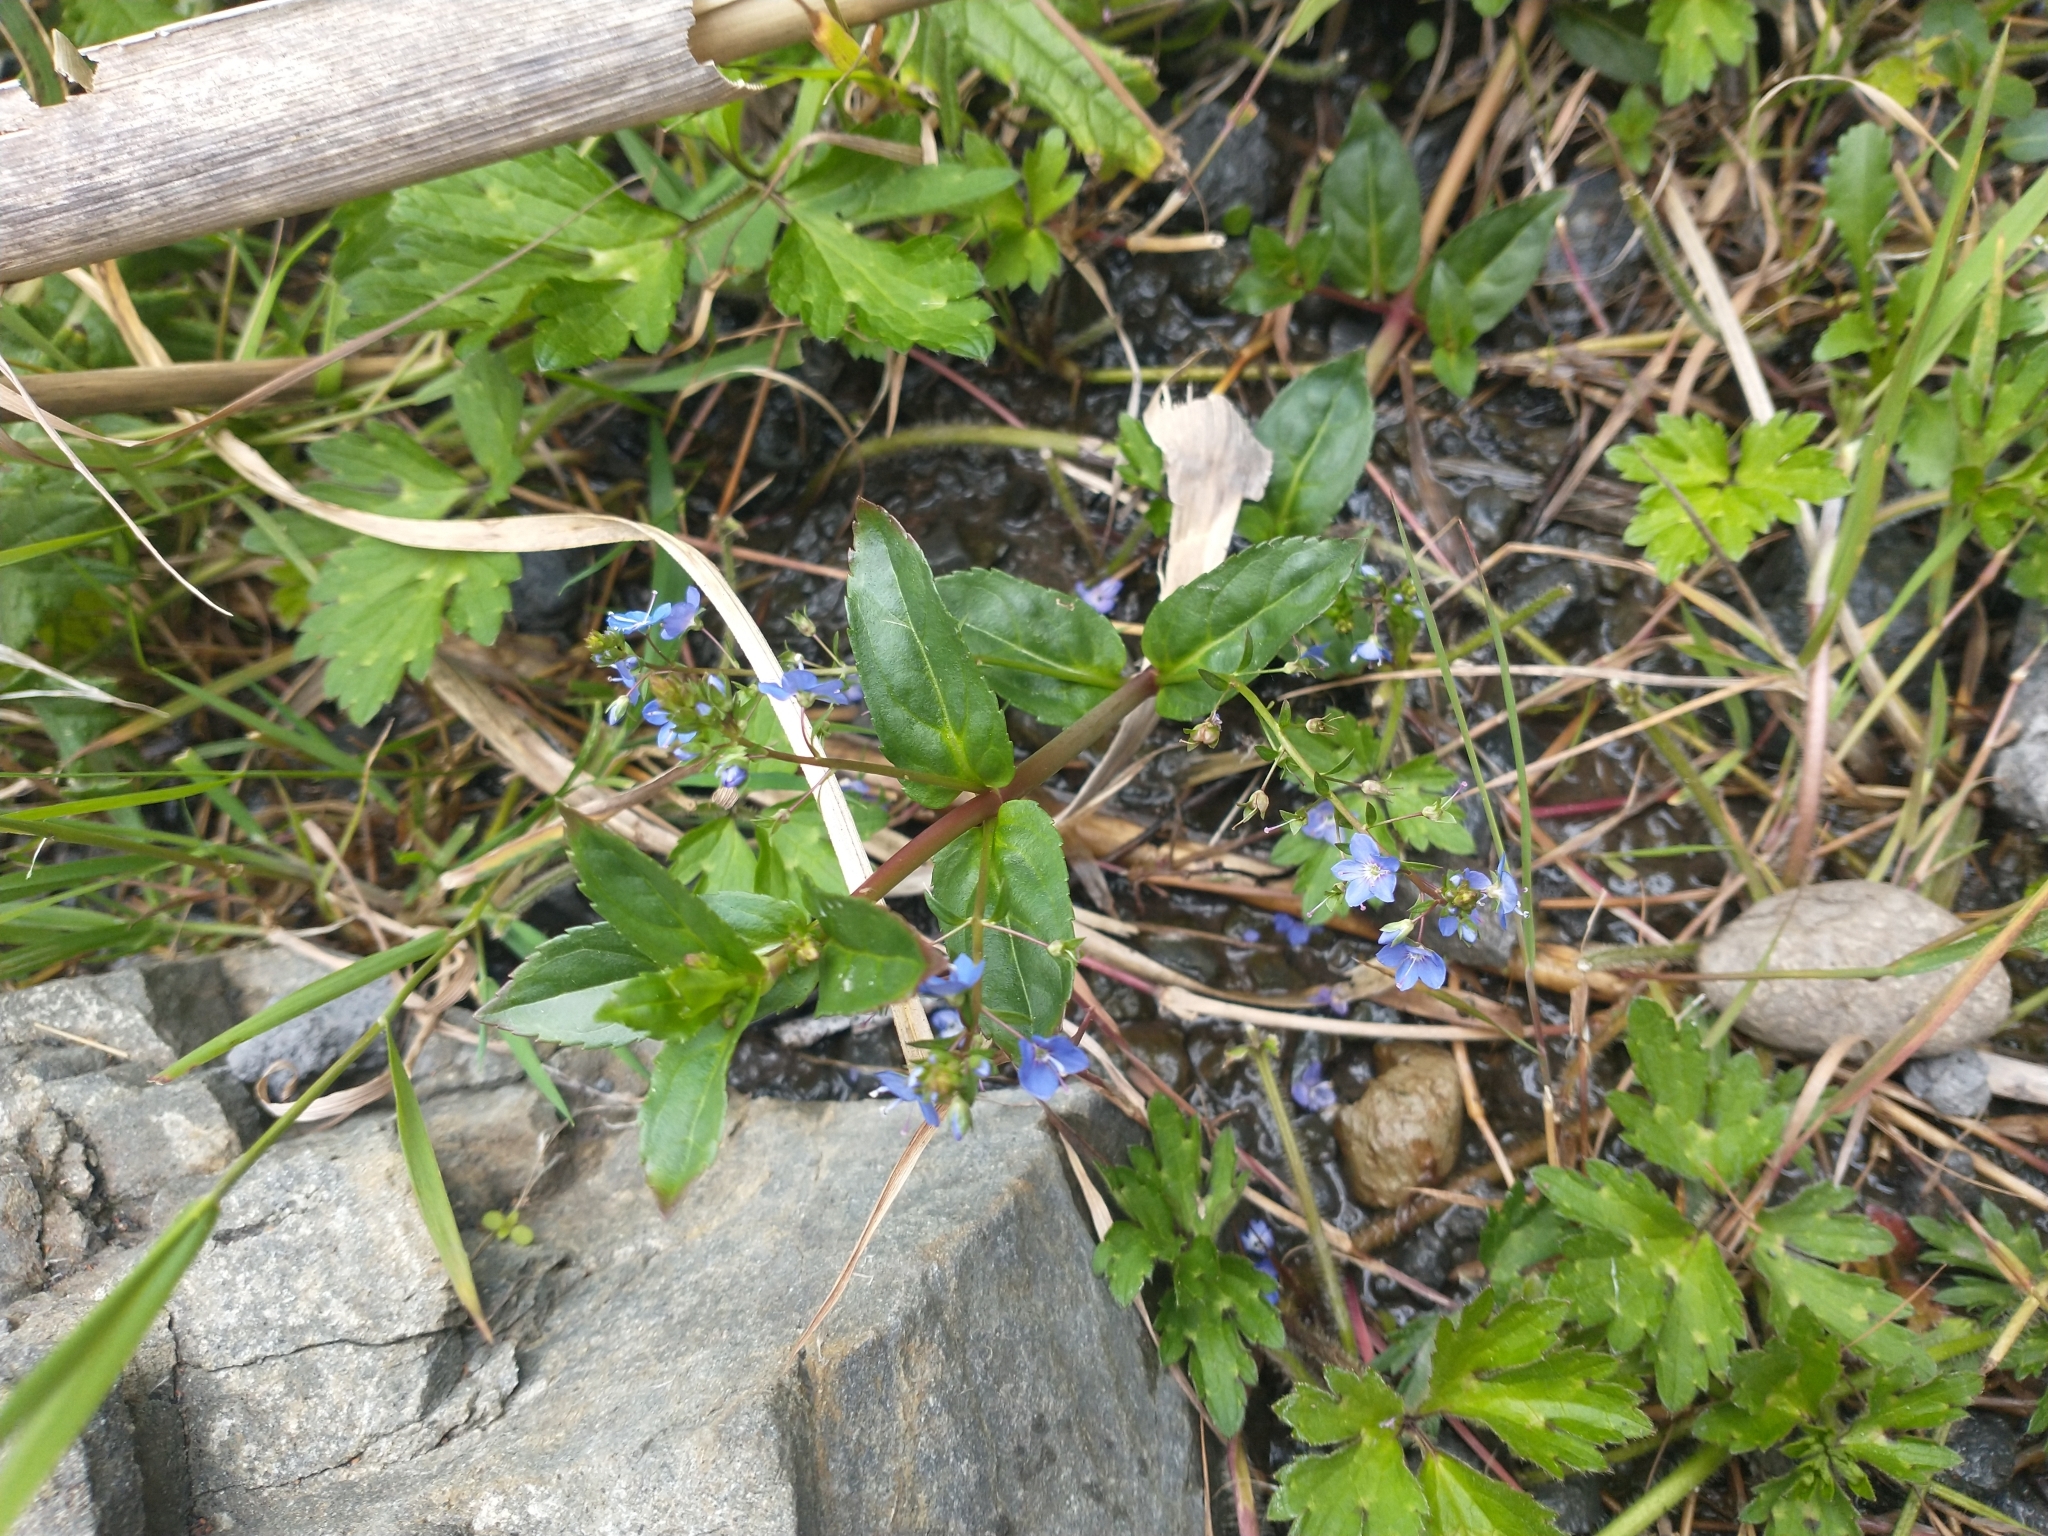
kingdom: Plantae
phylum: Tracheophyta
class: Magnoliopsida
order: Lamiales
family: Plantaginaceae
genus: Veronica
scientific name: Veronica americana
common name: American brooklime
